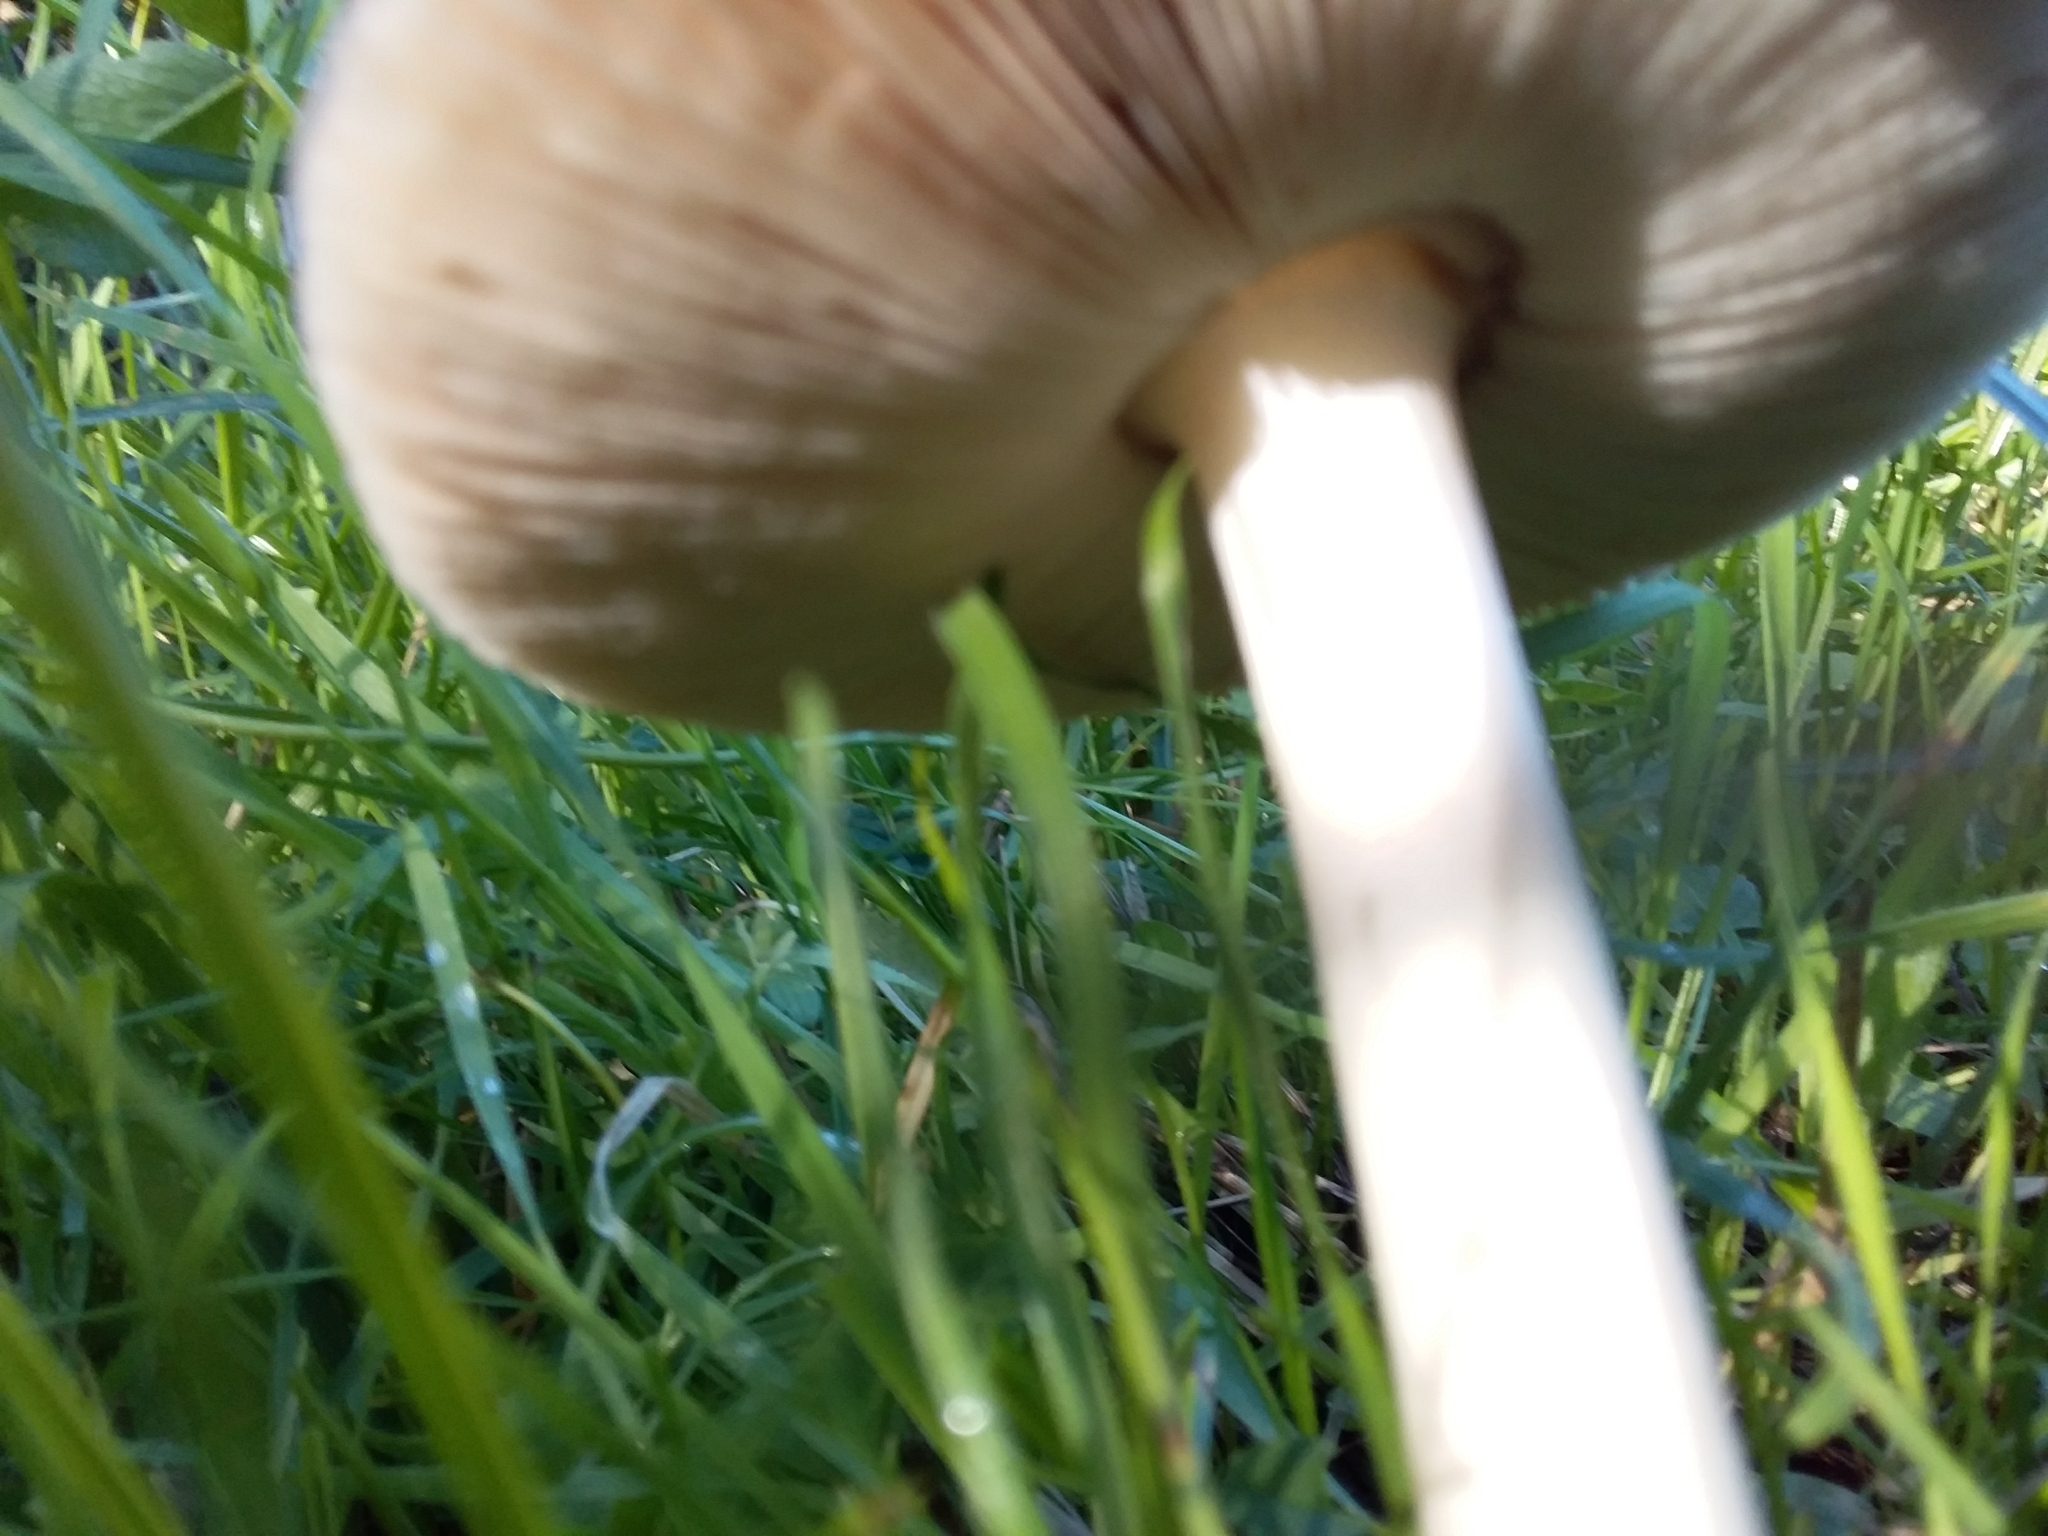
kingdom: Fungi
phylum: Basidiomycota
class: Agaricomycetes
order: Agaricales
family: Pluteaceae
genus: Volvopluteus
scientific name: Volvopluteus gloiocephalus
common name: Stubble rosegill
